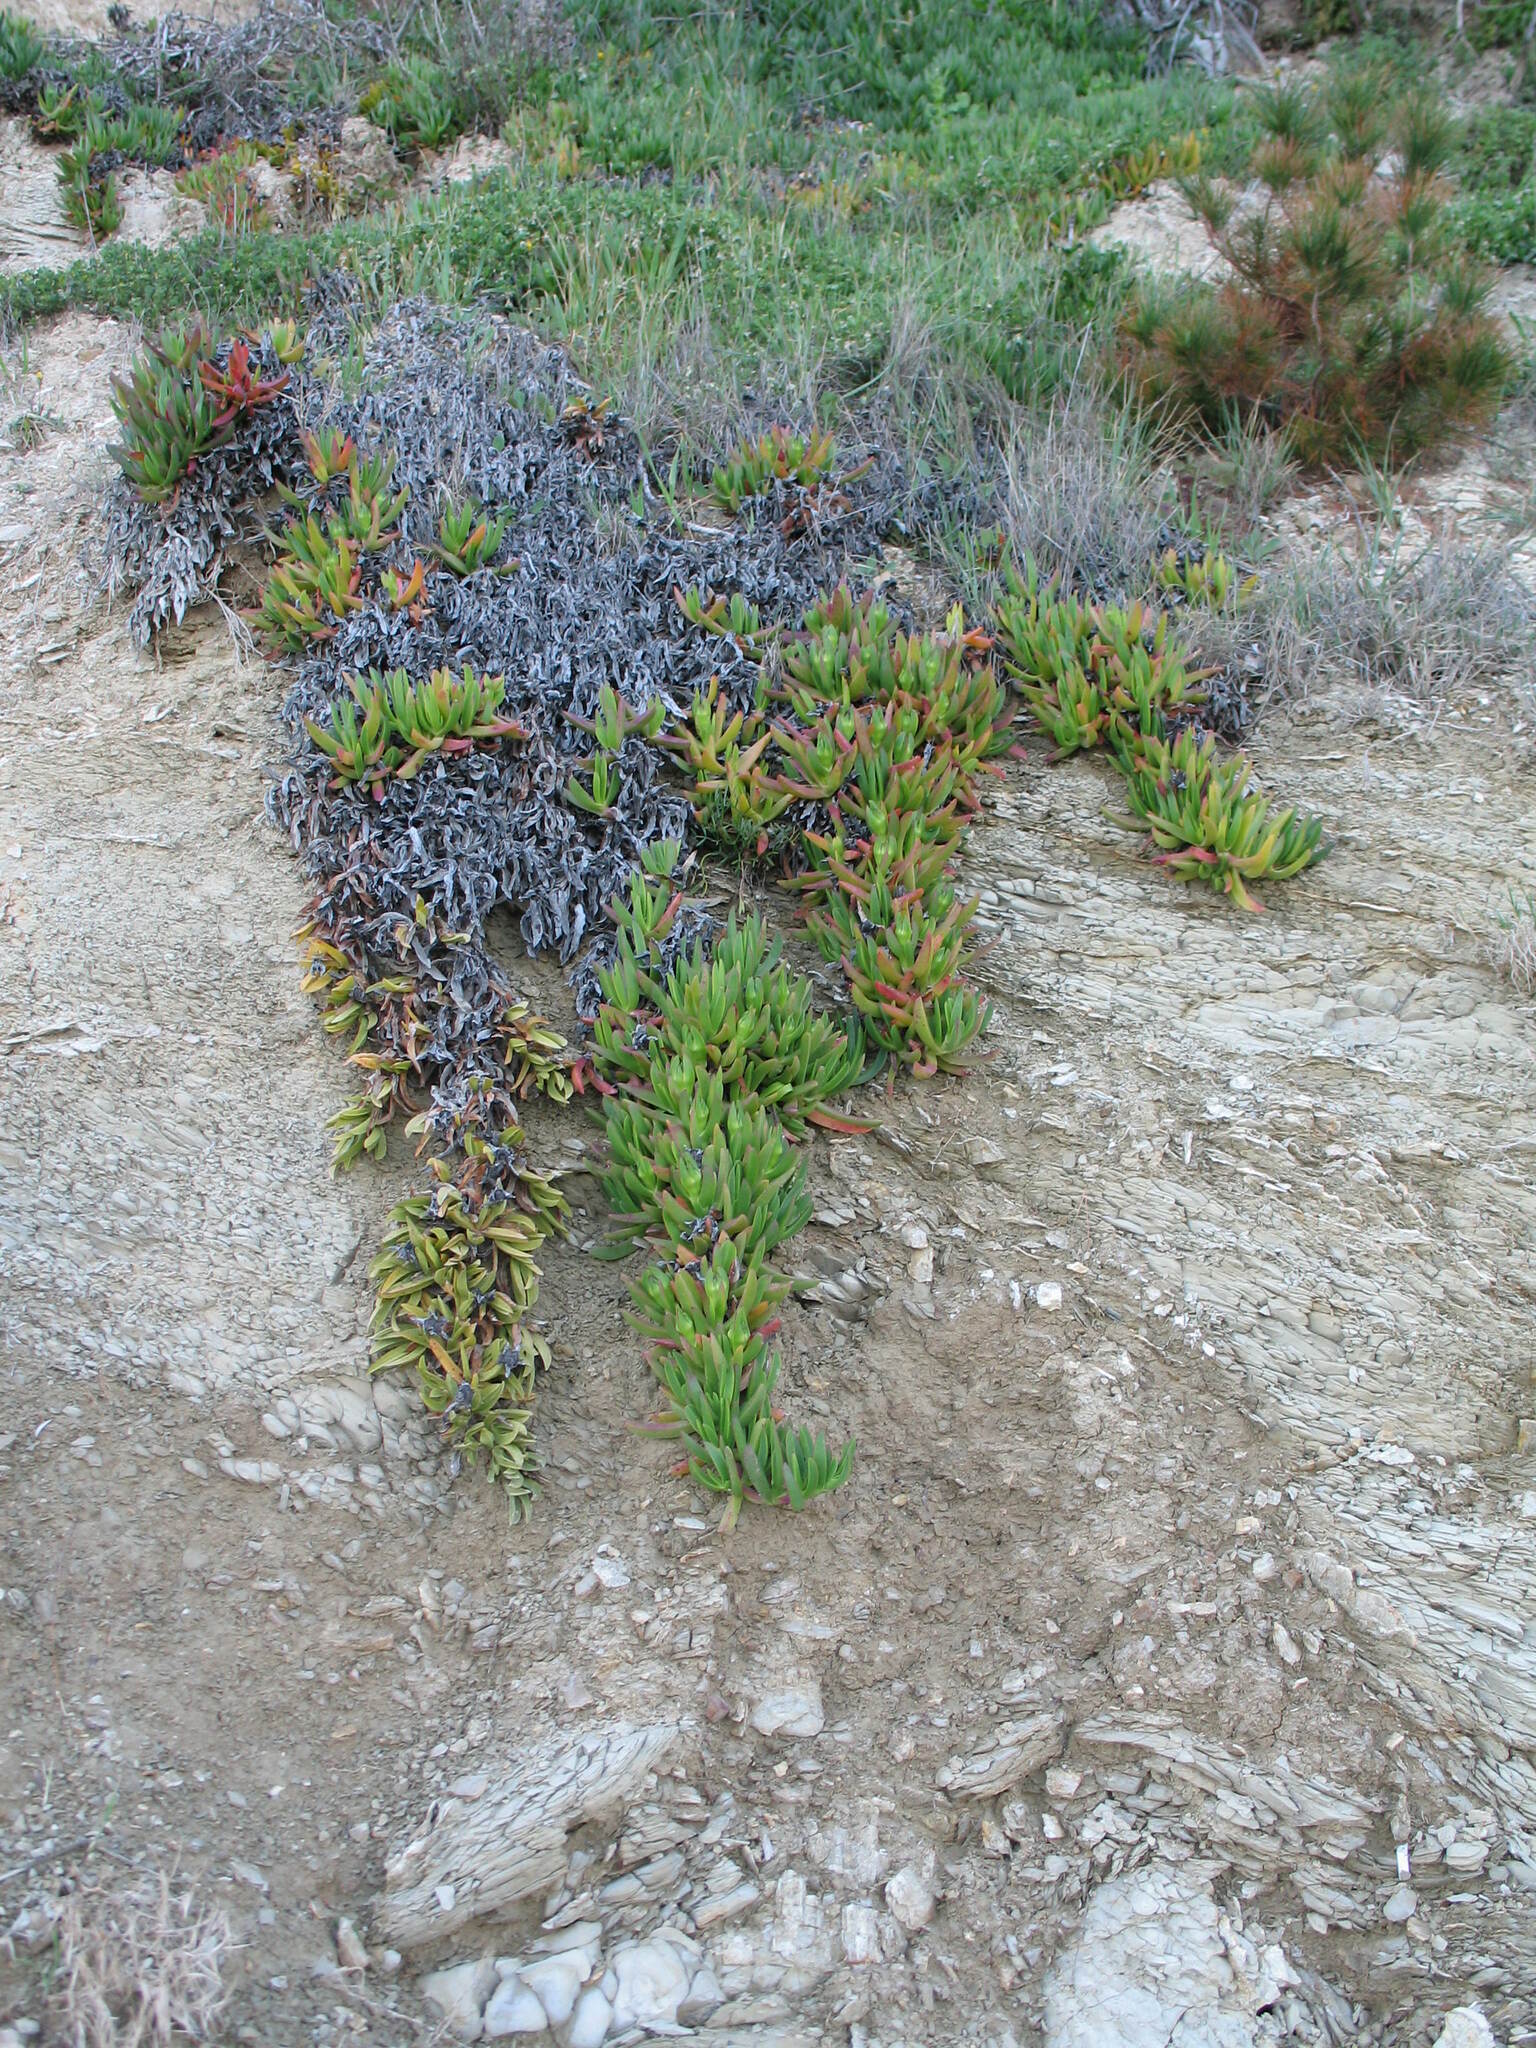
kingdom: Plantae
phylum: Tracheophyta
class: Magnoliopsida
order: Caryophyllales
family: Aizoaceae
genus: Carpobrotus
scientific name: Carpobrotus acinaciformis
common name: Sally-my-handsome
